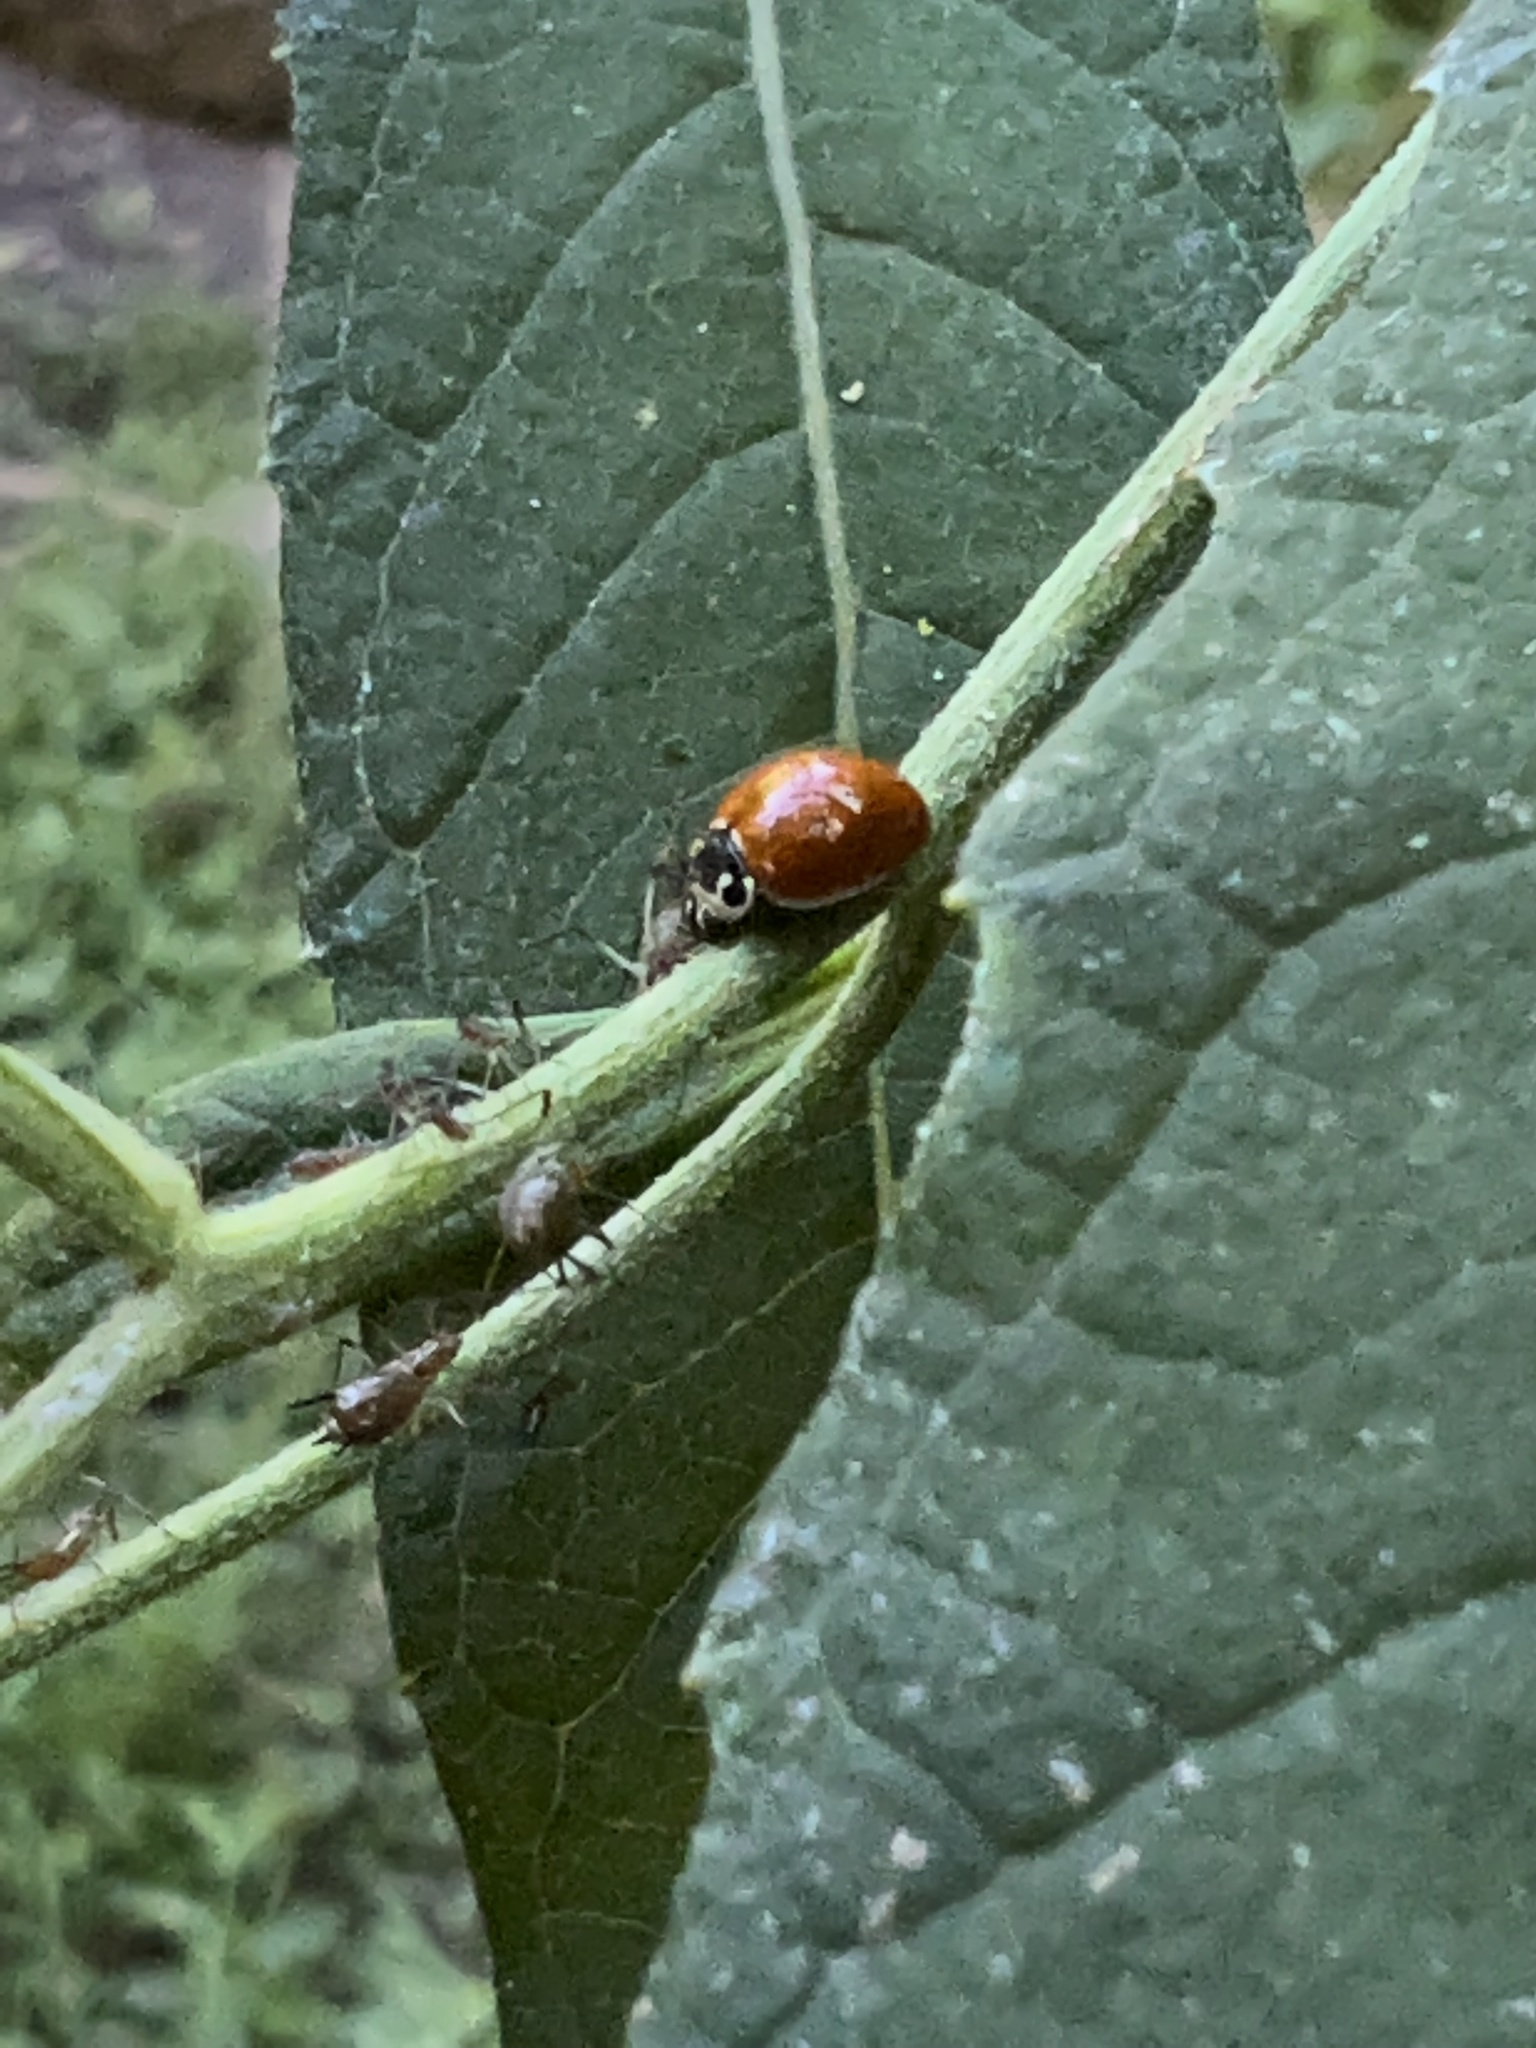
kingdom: Animalia
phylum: Arthropoda
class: Insecta
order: Coleoptera
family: Coccinellidae
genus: Cycloneda
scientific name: Cycloneda munda
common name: Polished lady beetle
